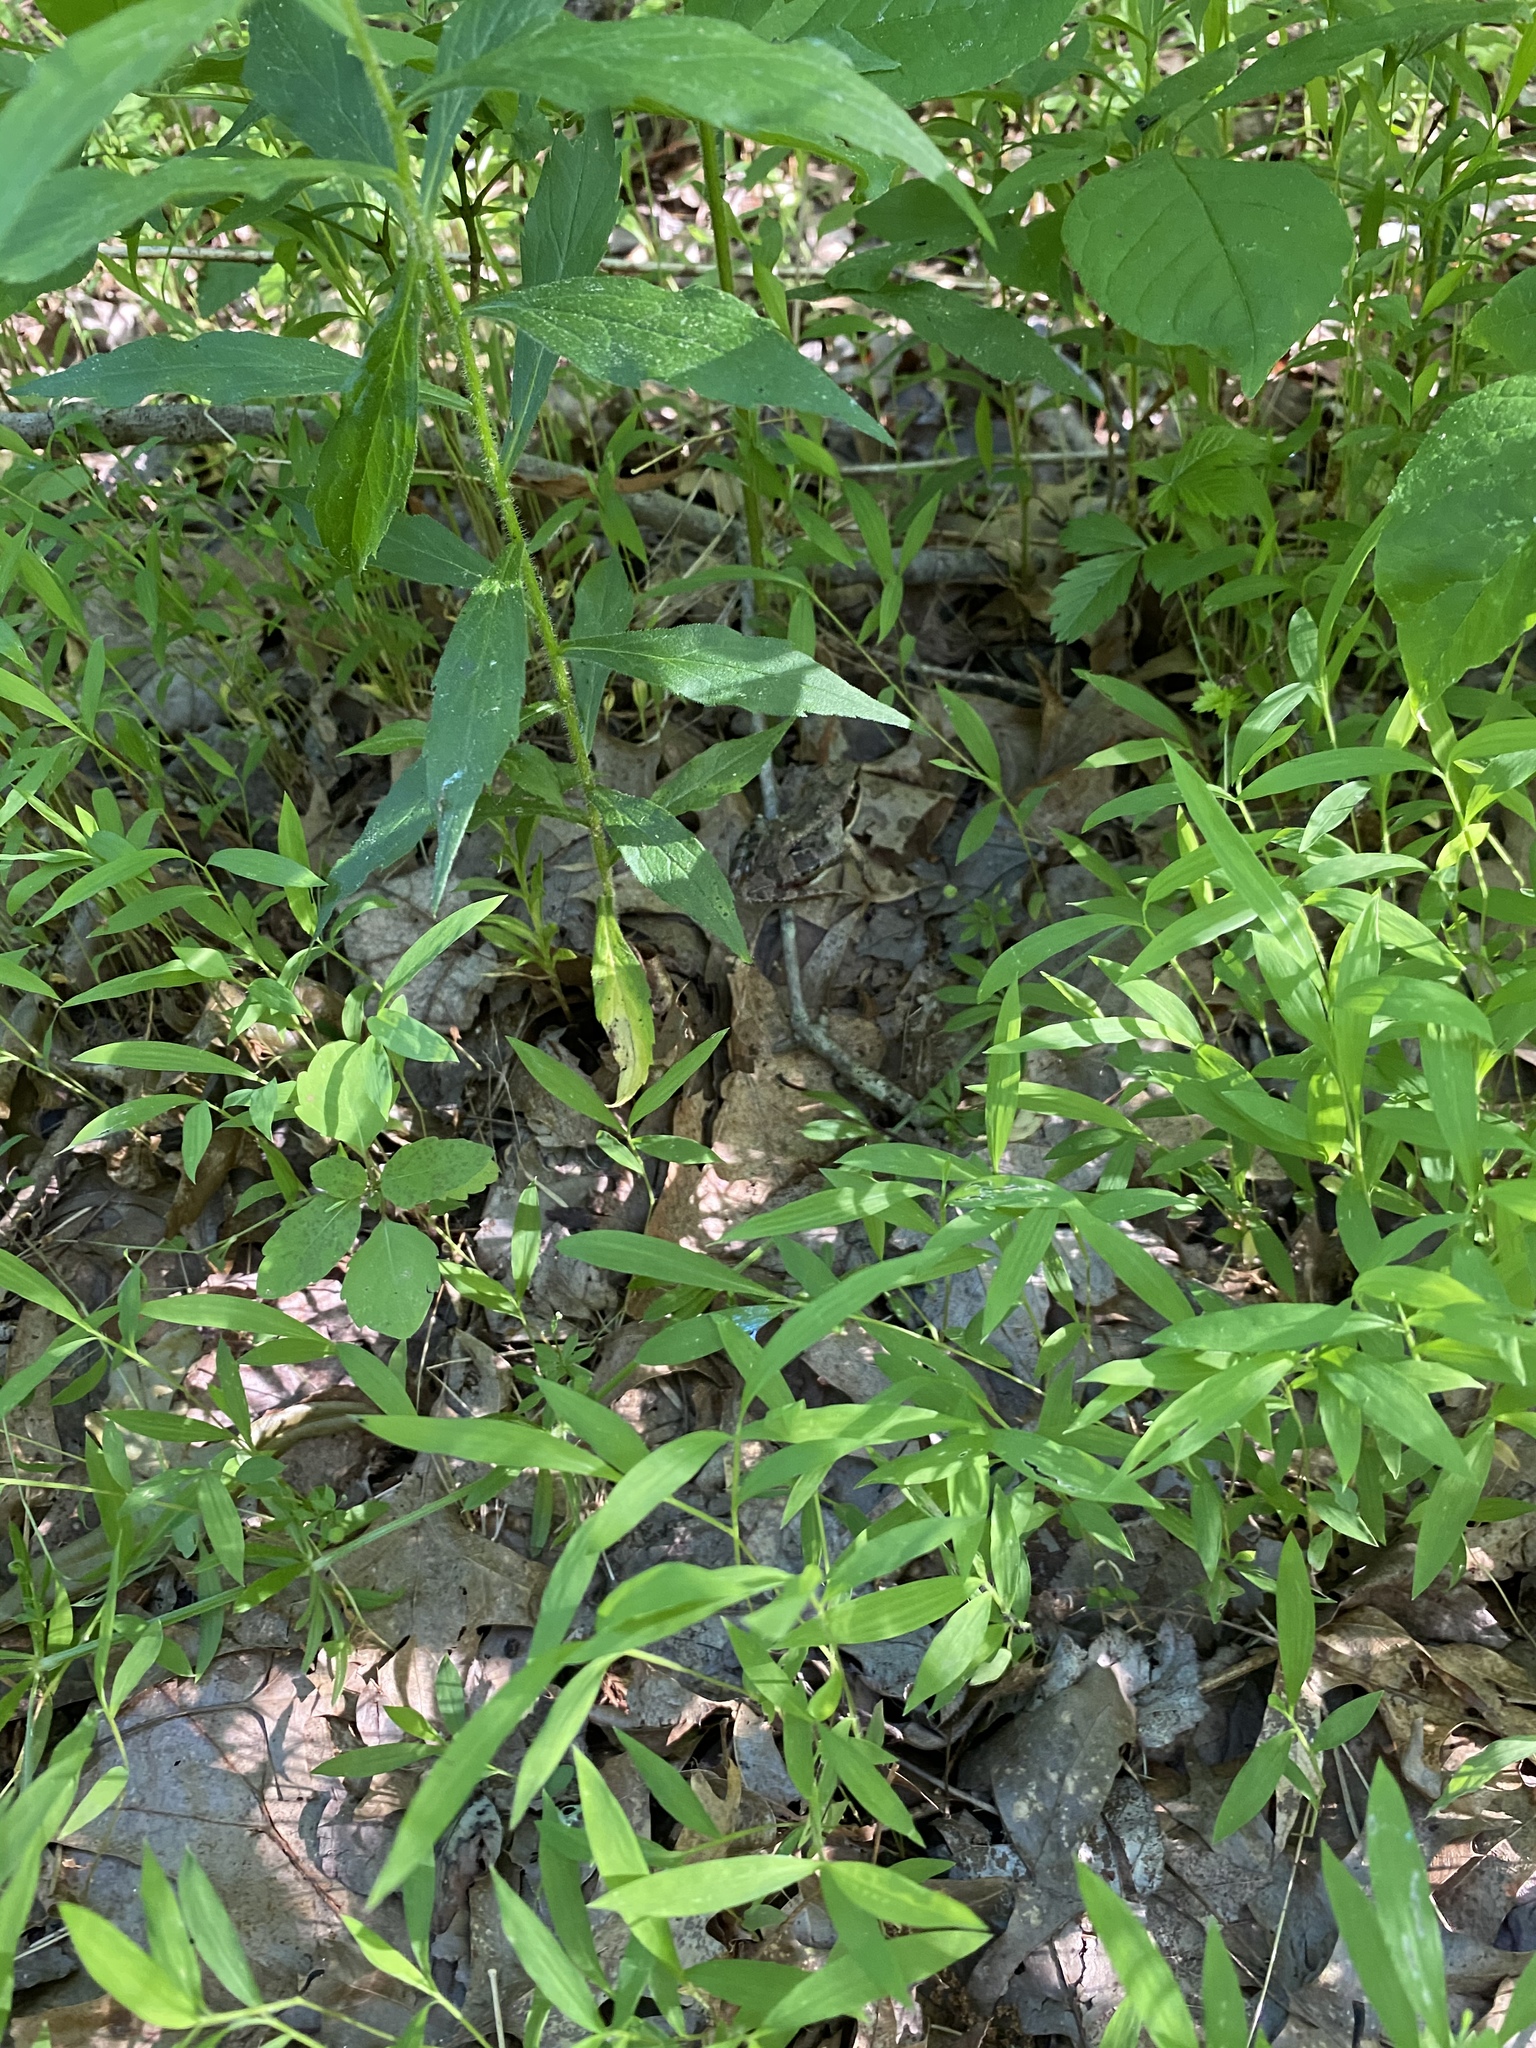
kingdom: Animalia
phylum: Chordata
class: Amphibia
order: Anura
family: Ranidae
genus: Lithobates
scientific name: Lithobates sylvaticus
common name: Wood frog
